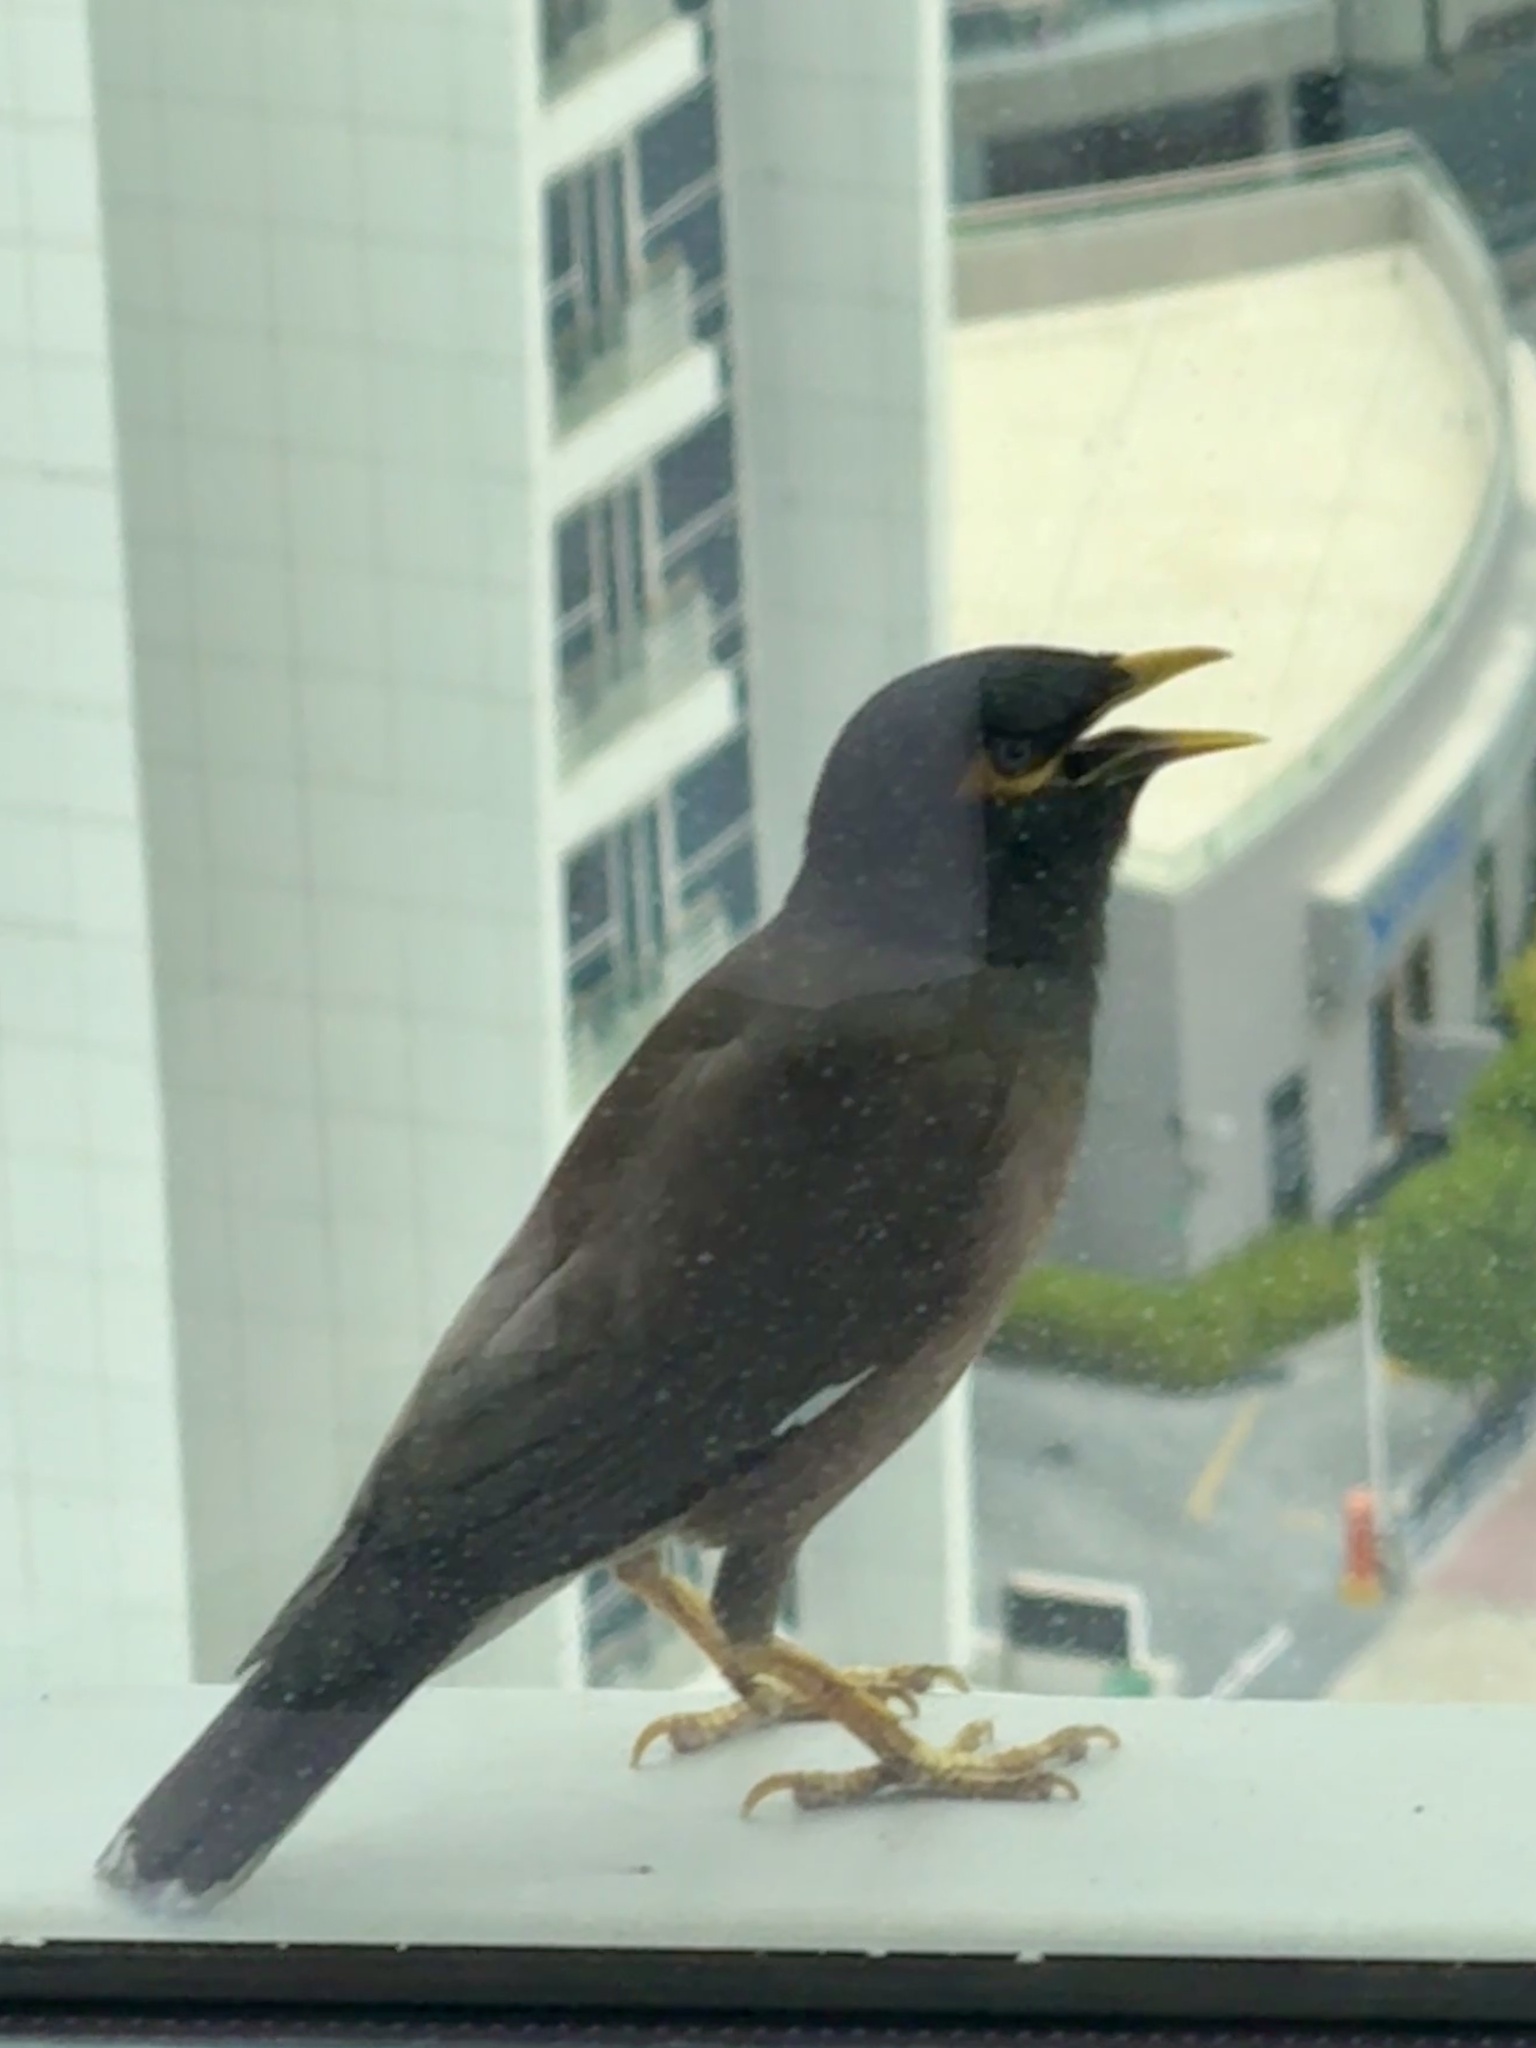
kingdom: Animalia
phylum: Chordata
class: Aves
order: Passeriformes
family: Sturnidae
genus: Acridotheres
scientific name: Acridotheres tristis
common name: Common myna
